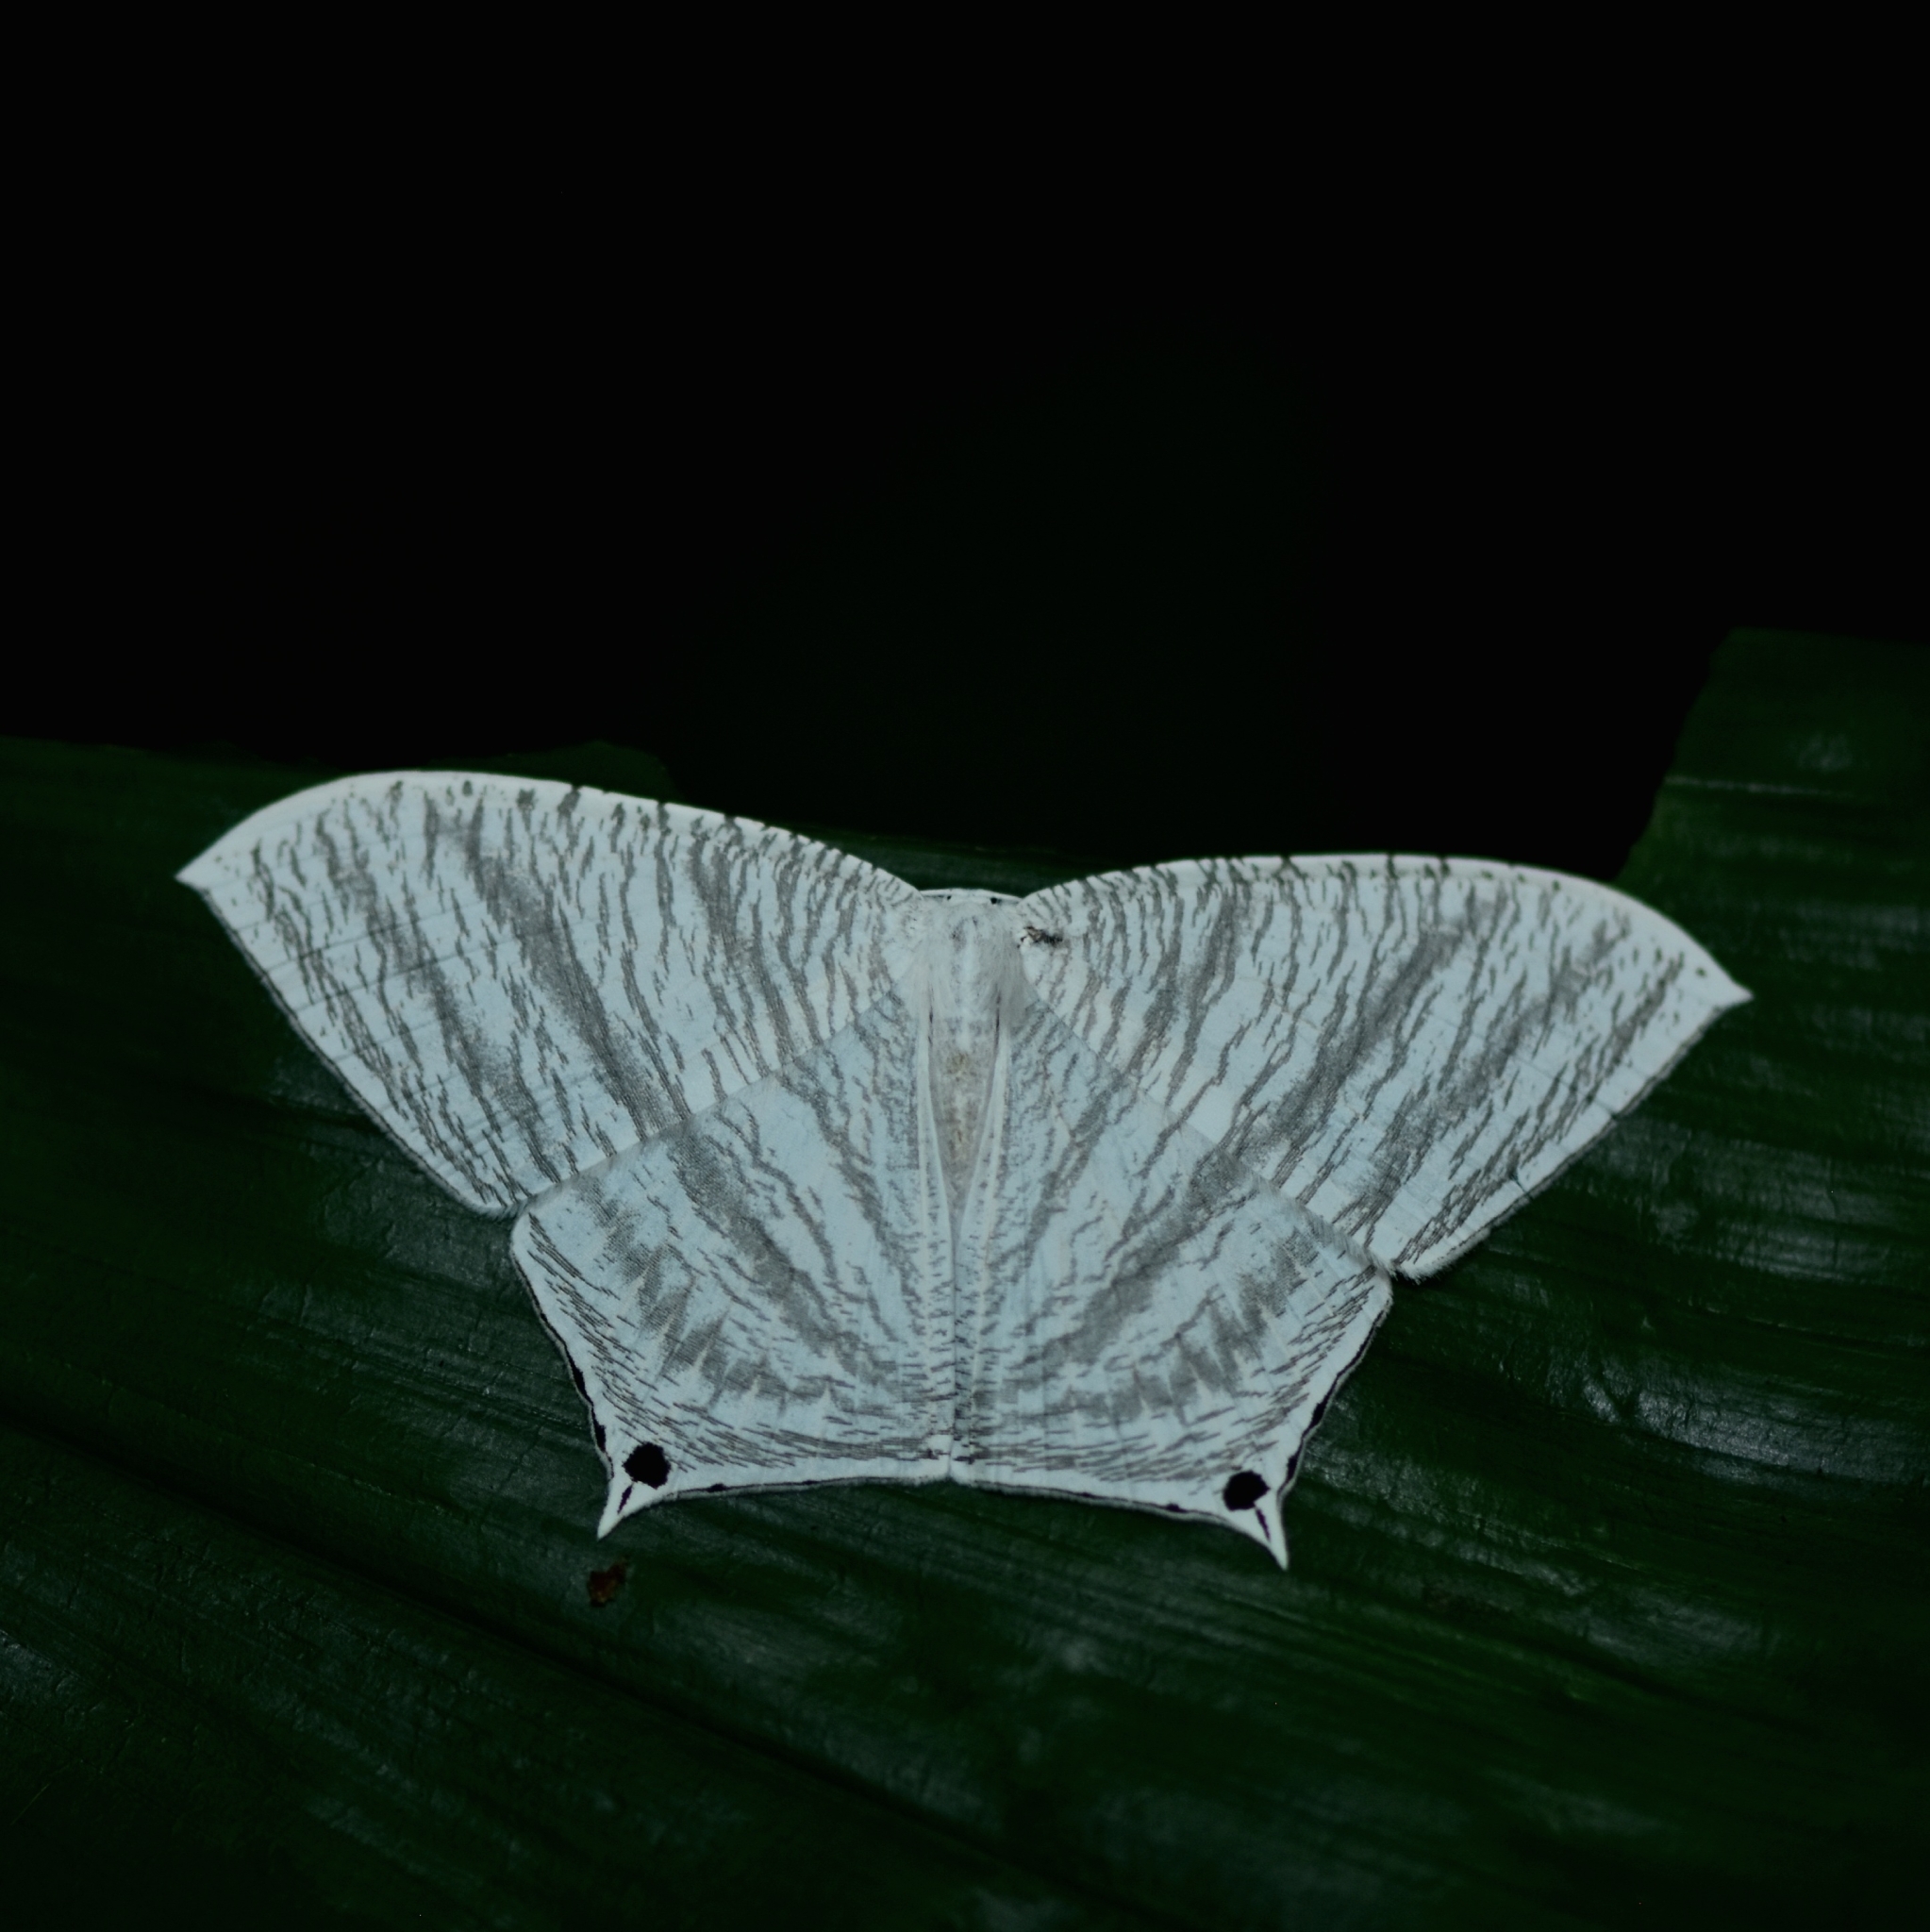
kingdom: Animalia
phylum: Arthropoda
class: Insecta
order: Lepidoptera
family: Uraniidae
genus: Micronia
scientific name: Micronia aculeata
